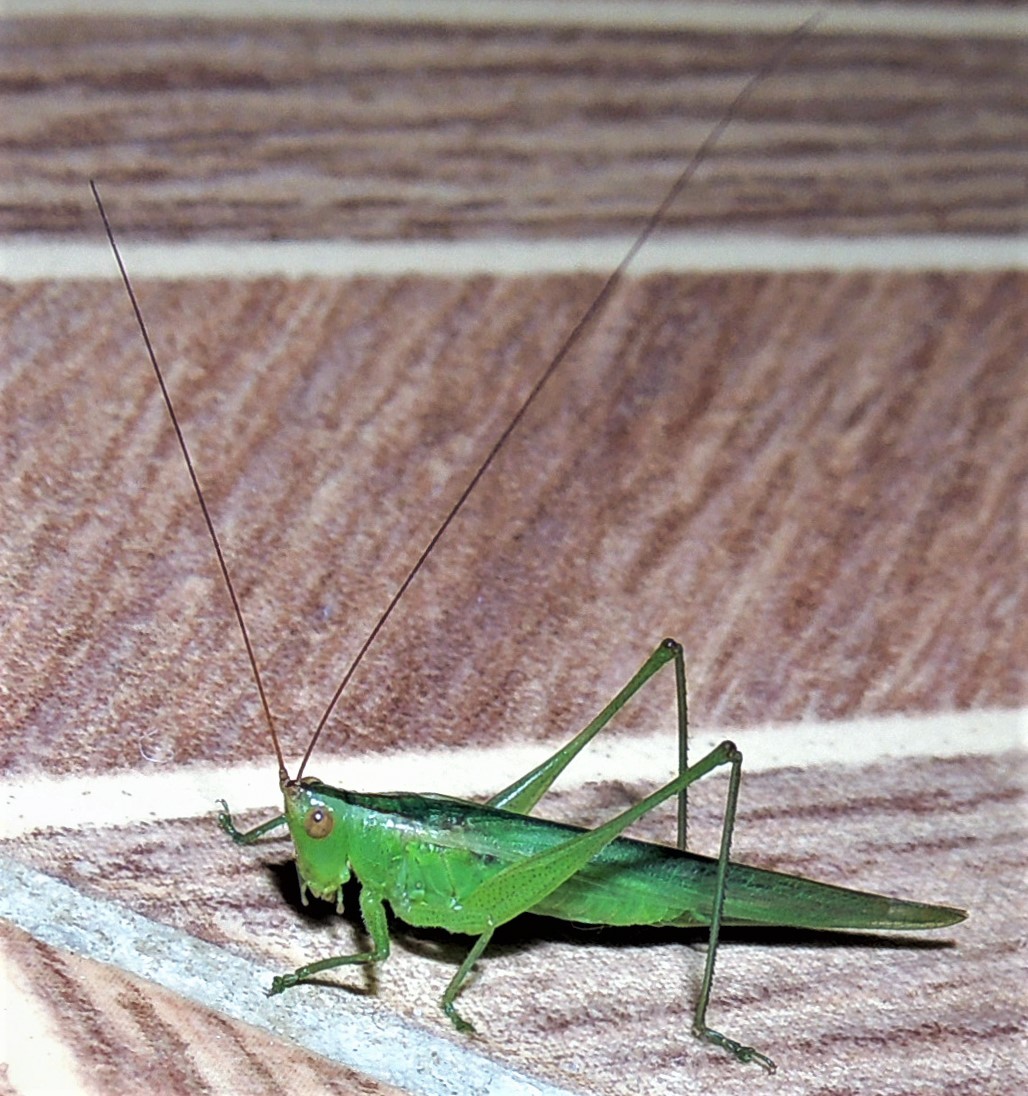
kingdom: Animalia
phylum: Arthropoda
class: Insecta
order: Orthoptera
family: Tettigoniidae
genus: Conocephalus
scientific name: Conocephalus longipes
